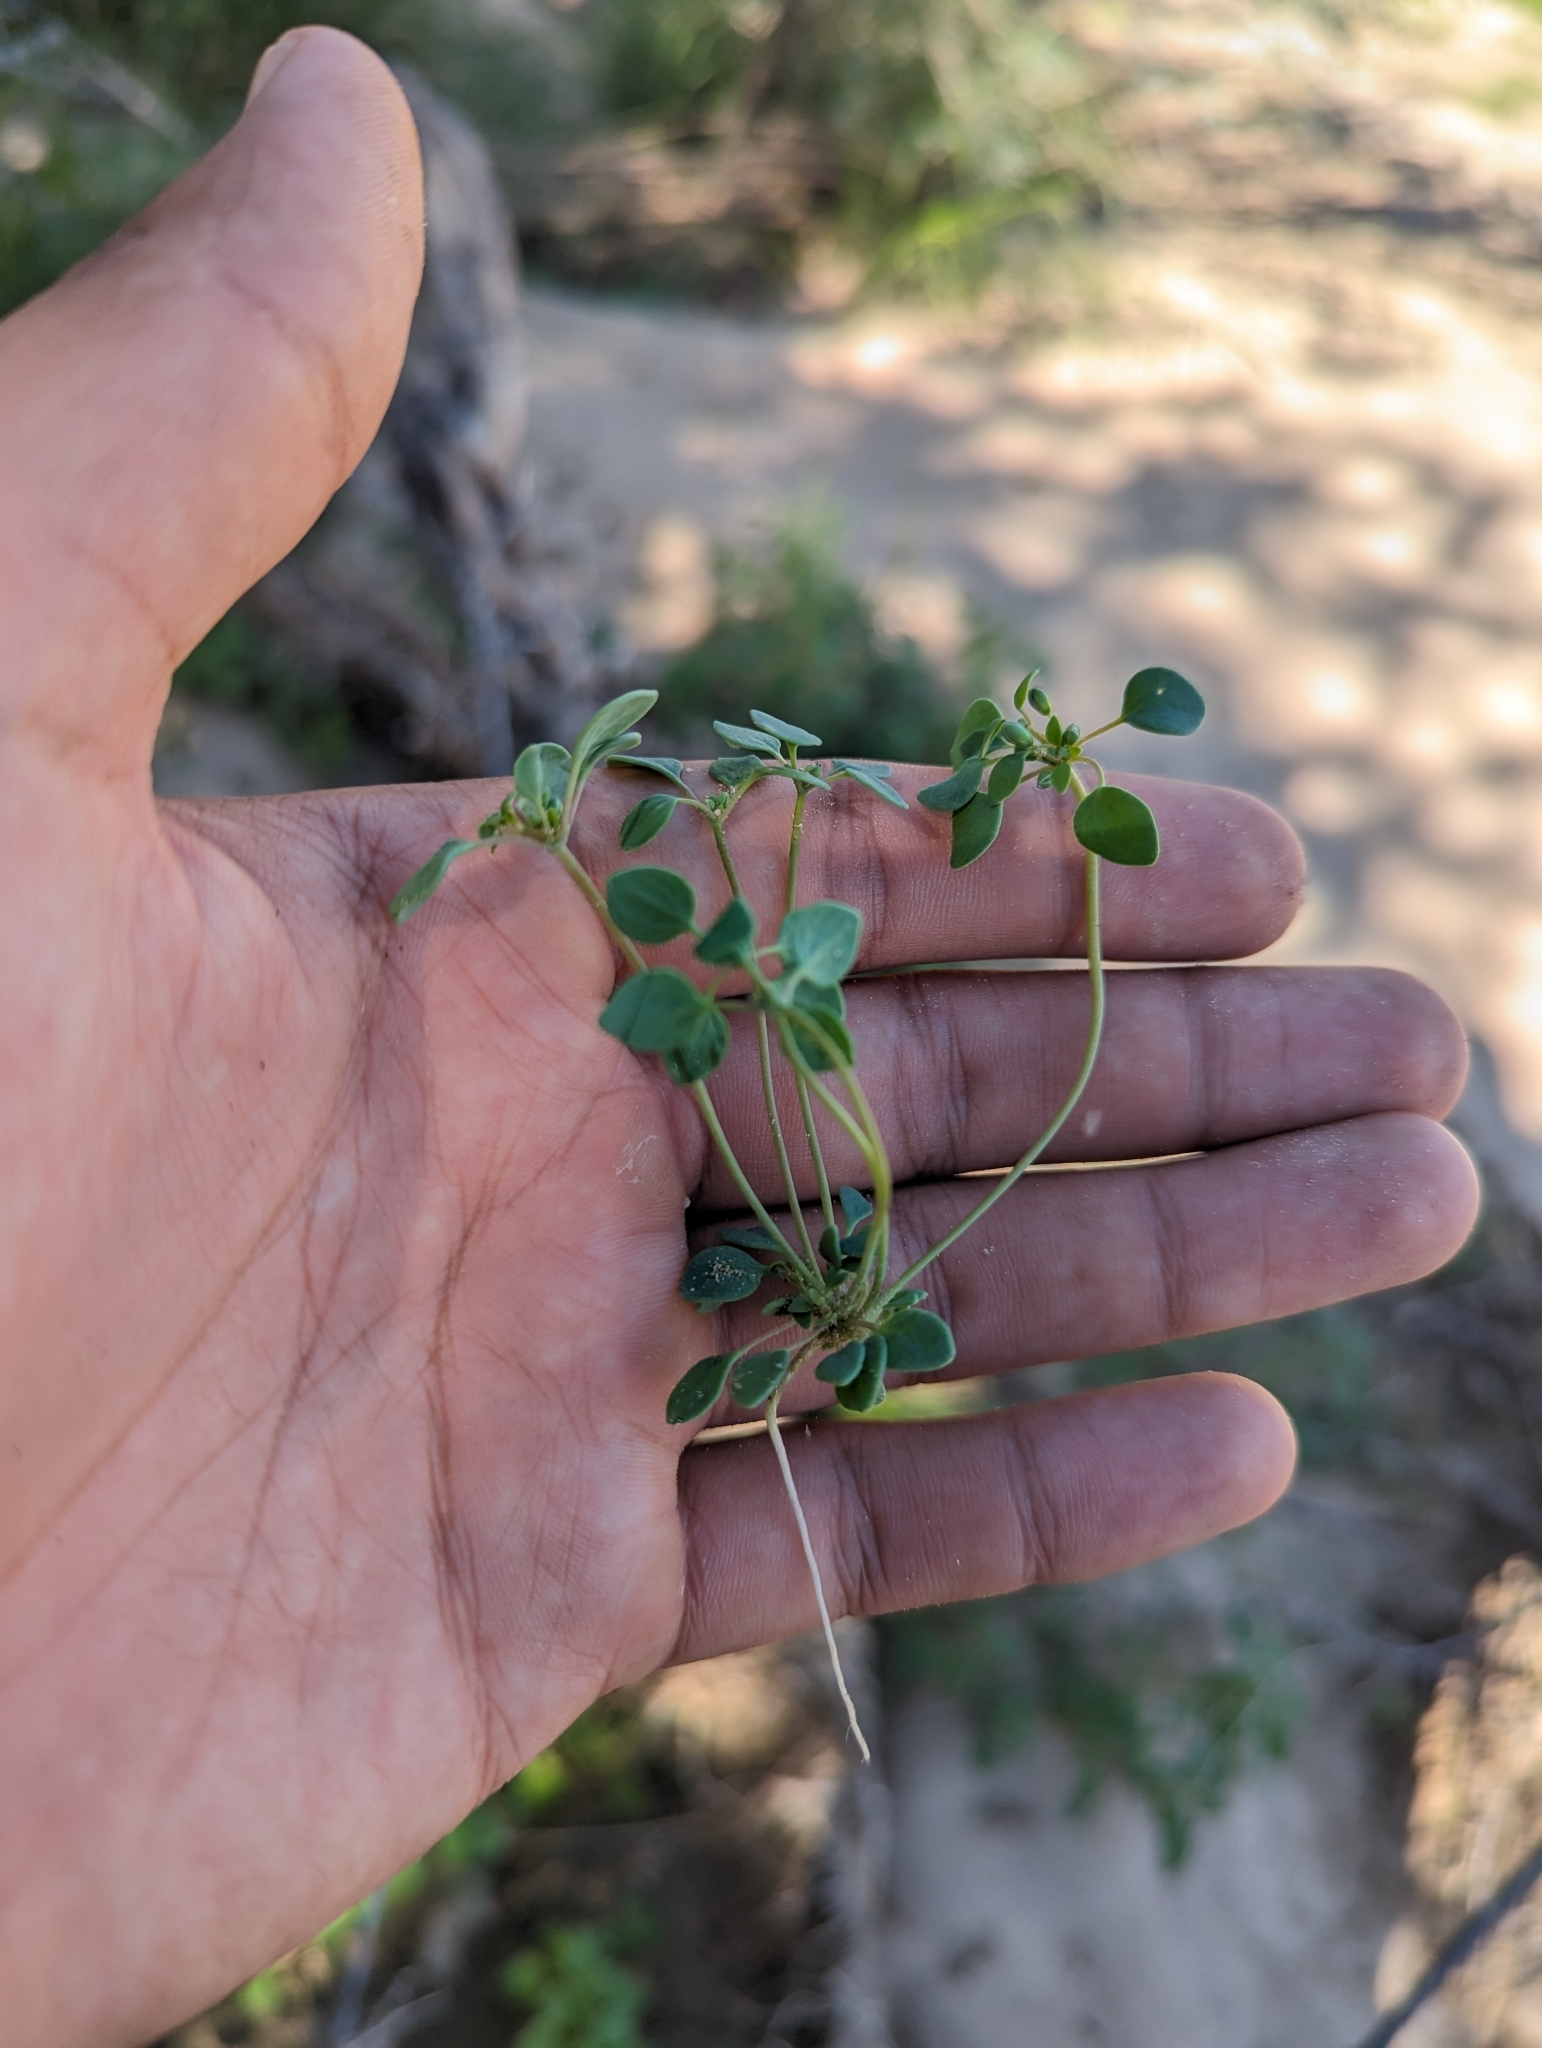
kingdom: Plantae
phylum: Tracheophyta
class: Magnoliopsida
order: Caryophyllales
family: Caryophyllaceae
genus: Drymaria
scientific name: Drymaria holosteoides
